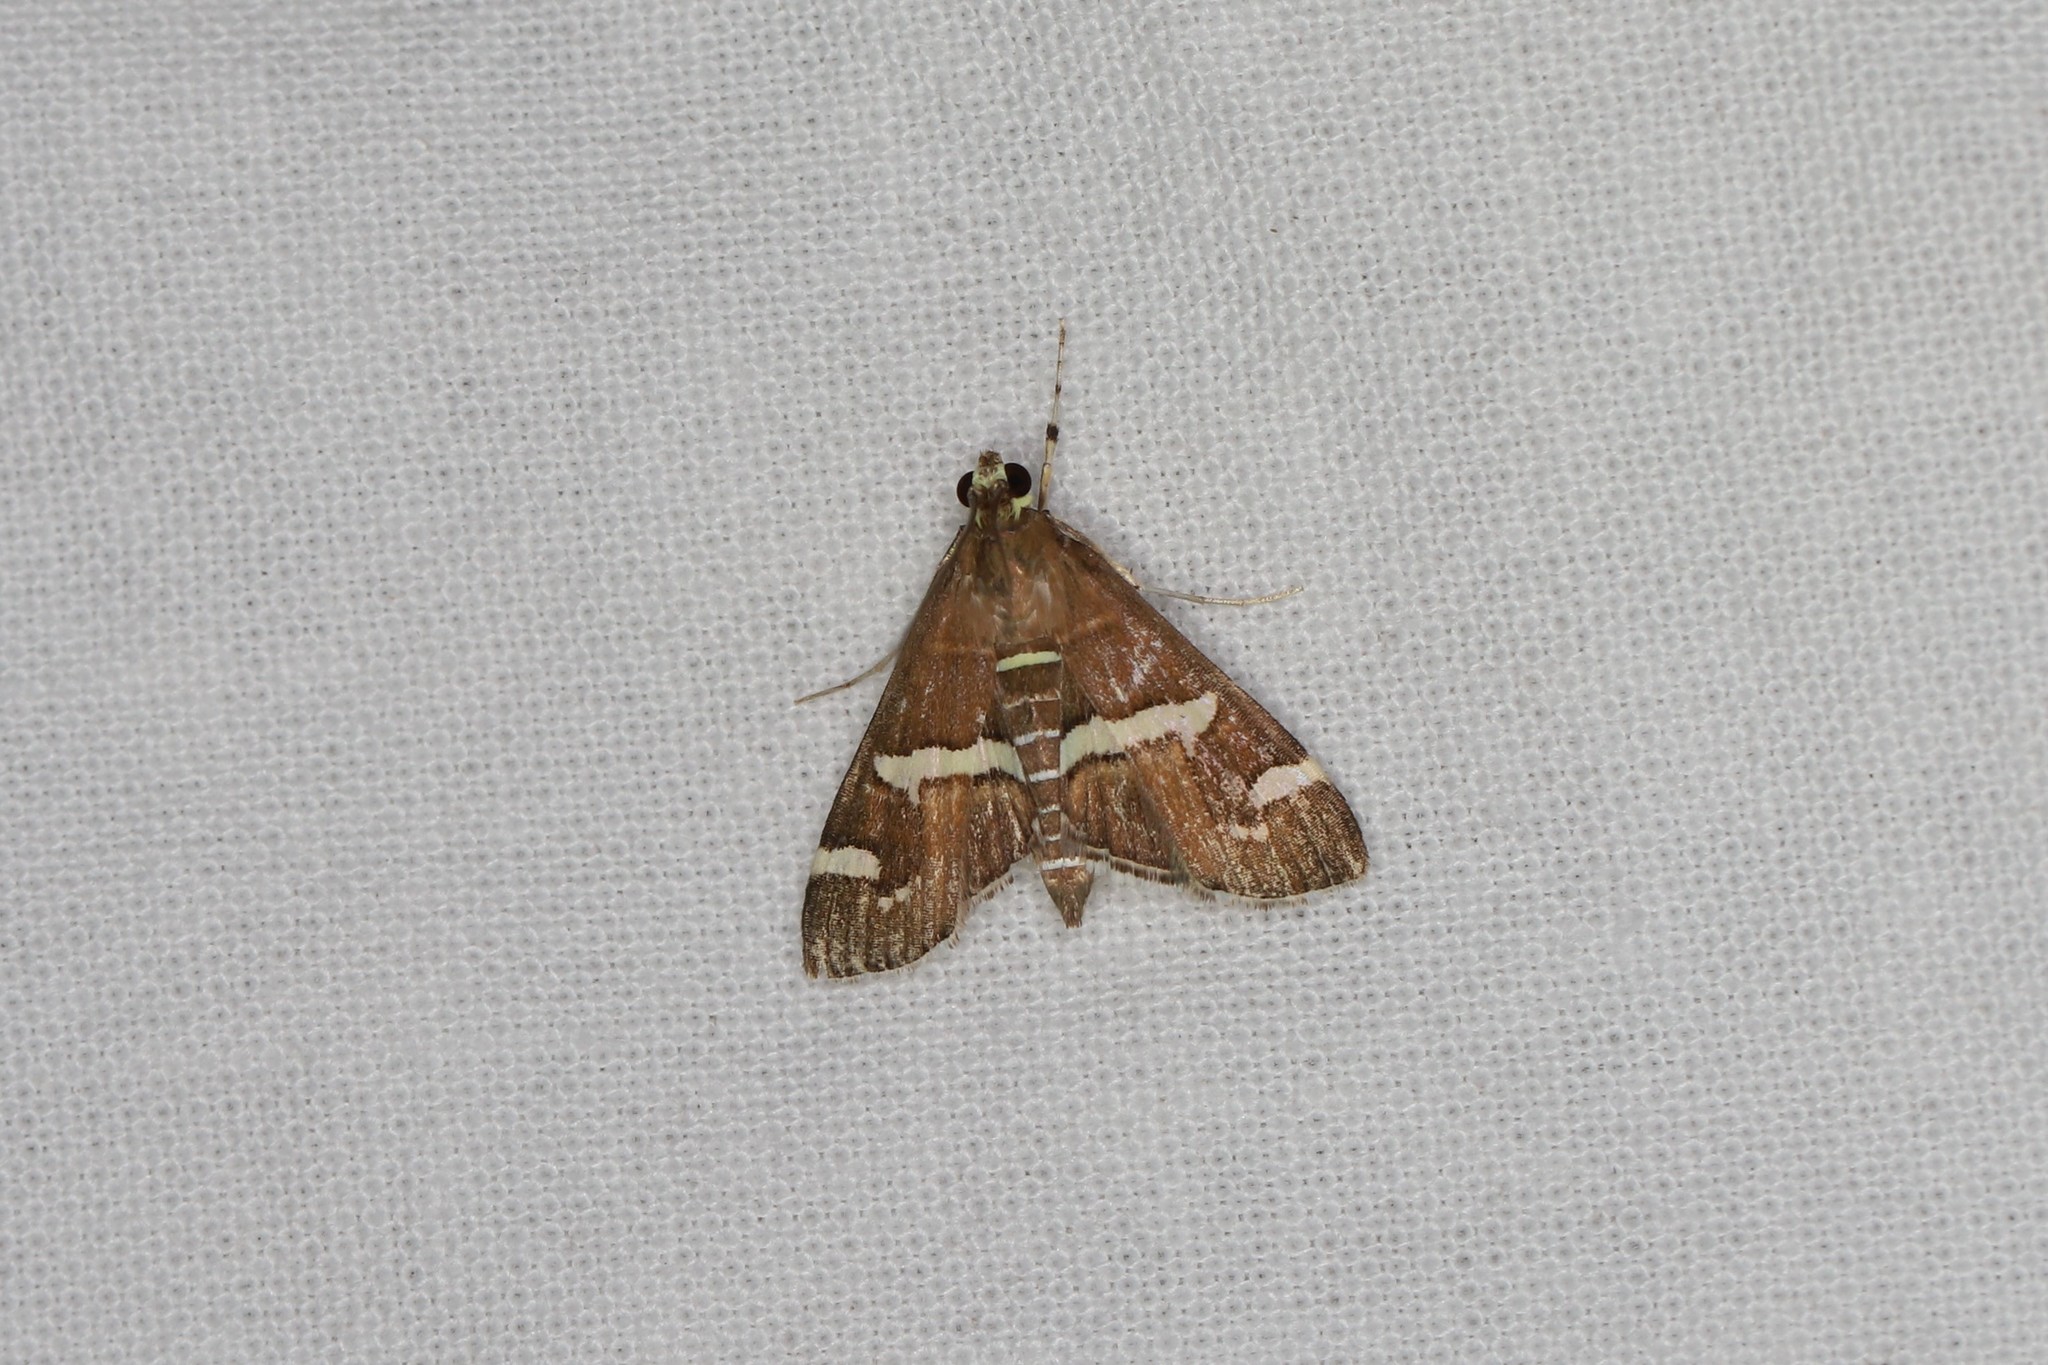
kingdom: Animalia
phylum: Arthropoda
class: Insecta
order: Lepidoptera
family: Crambidae
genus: Spoladea
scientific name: Spoladea recurvalis
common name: Beet webworm moth
